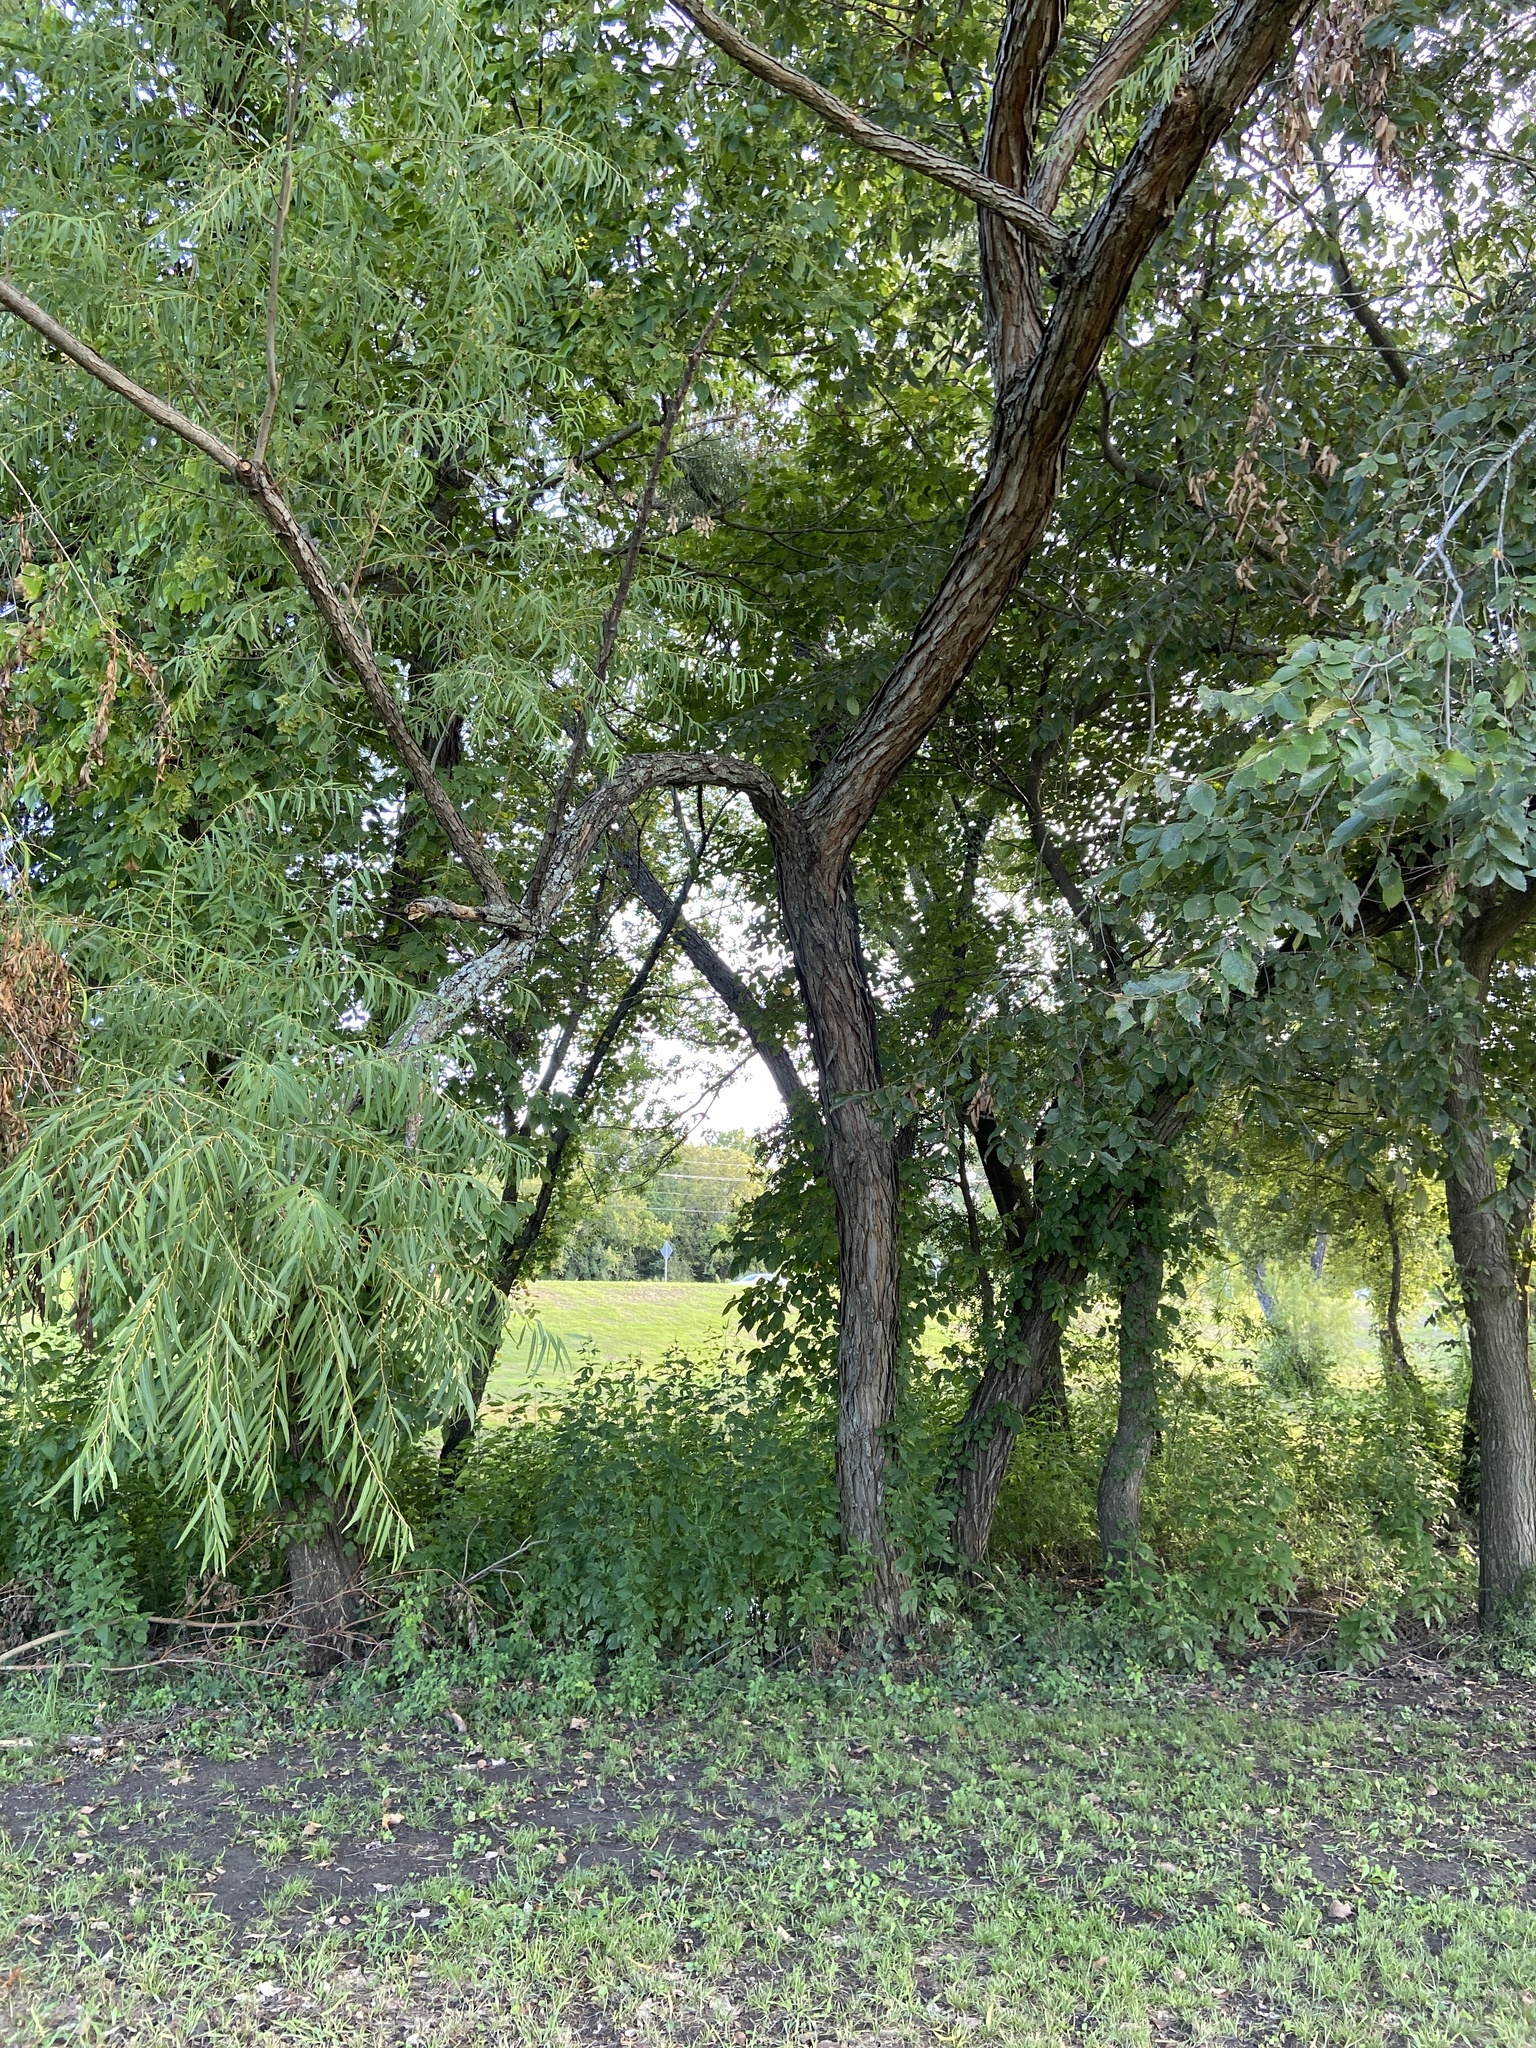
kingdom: Plantae
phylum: Tracheophyta
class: Magnoliopsida
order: Malpighiales
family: Salicaceae
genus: Salix
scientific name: Salix nigra
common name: Black willow
